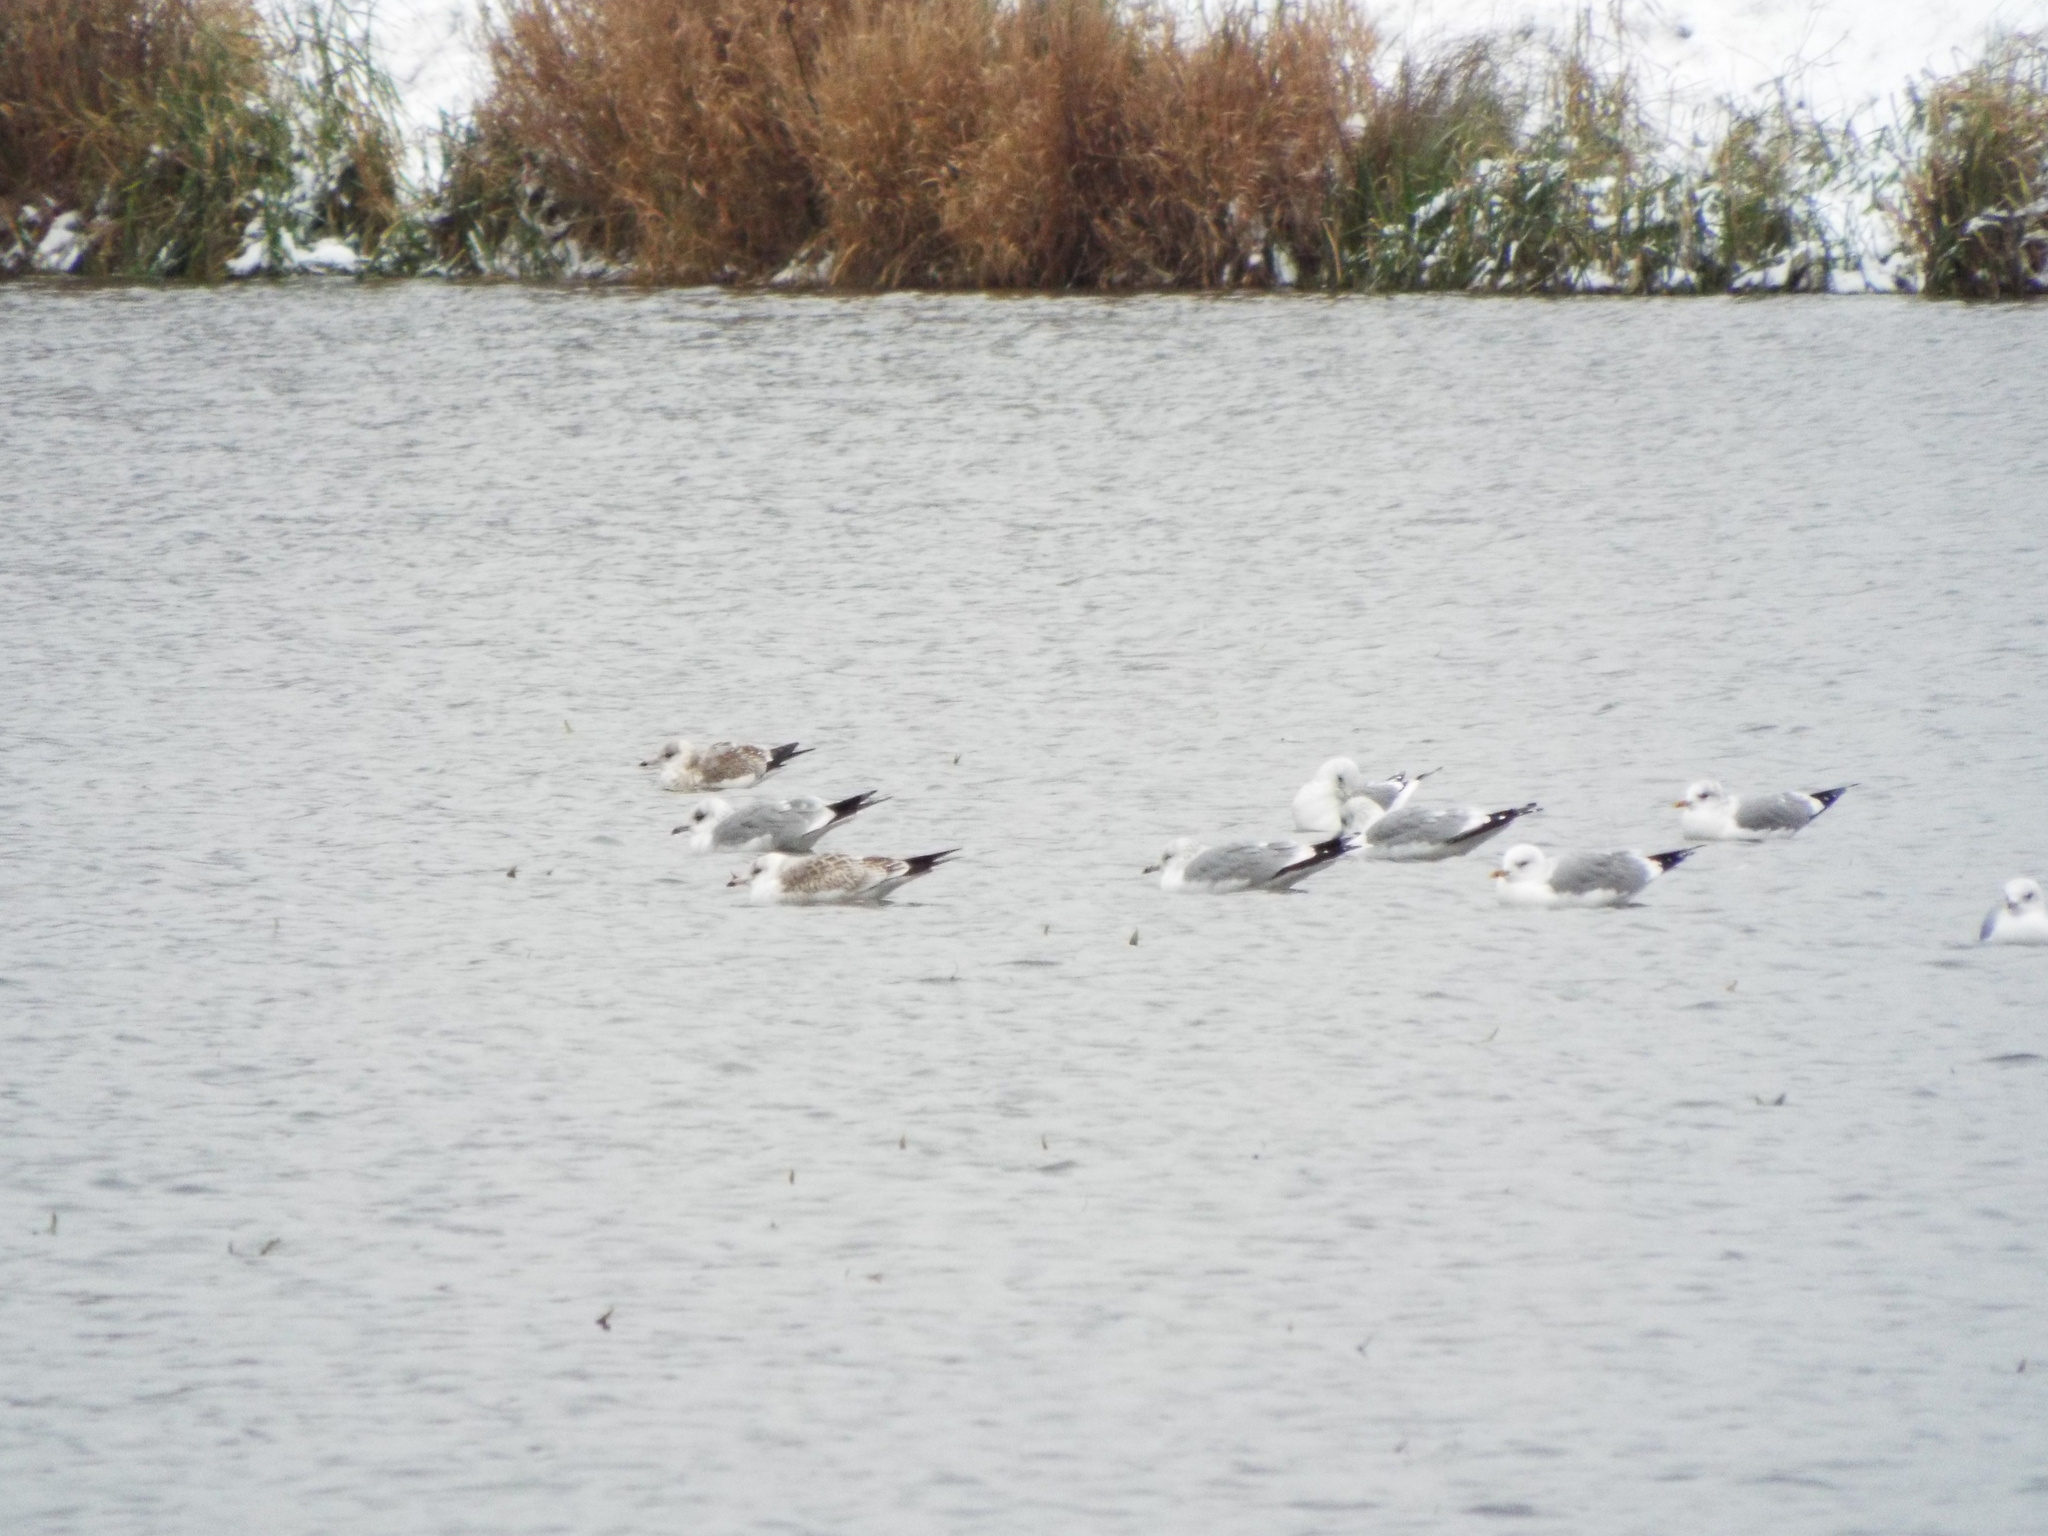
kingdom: Animalia
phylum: Chordata
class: Aves
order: Charadriiformes
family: Laridae
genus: Larus
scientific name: Larus canus
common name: Mew gull
